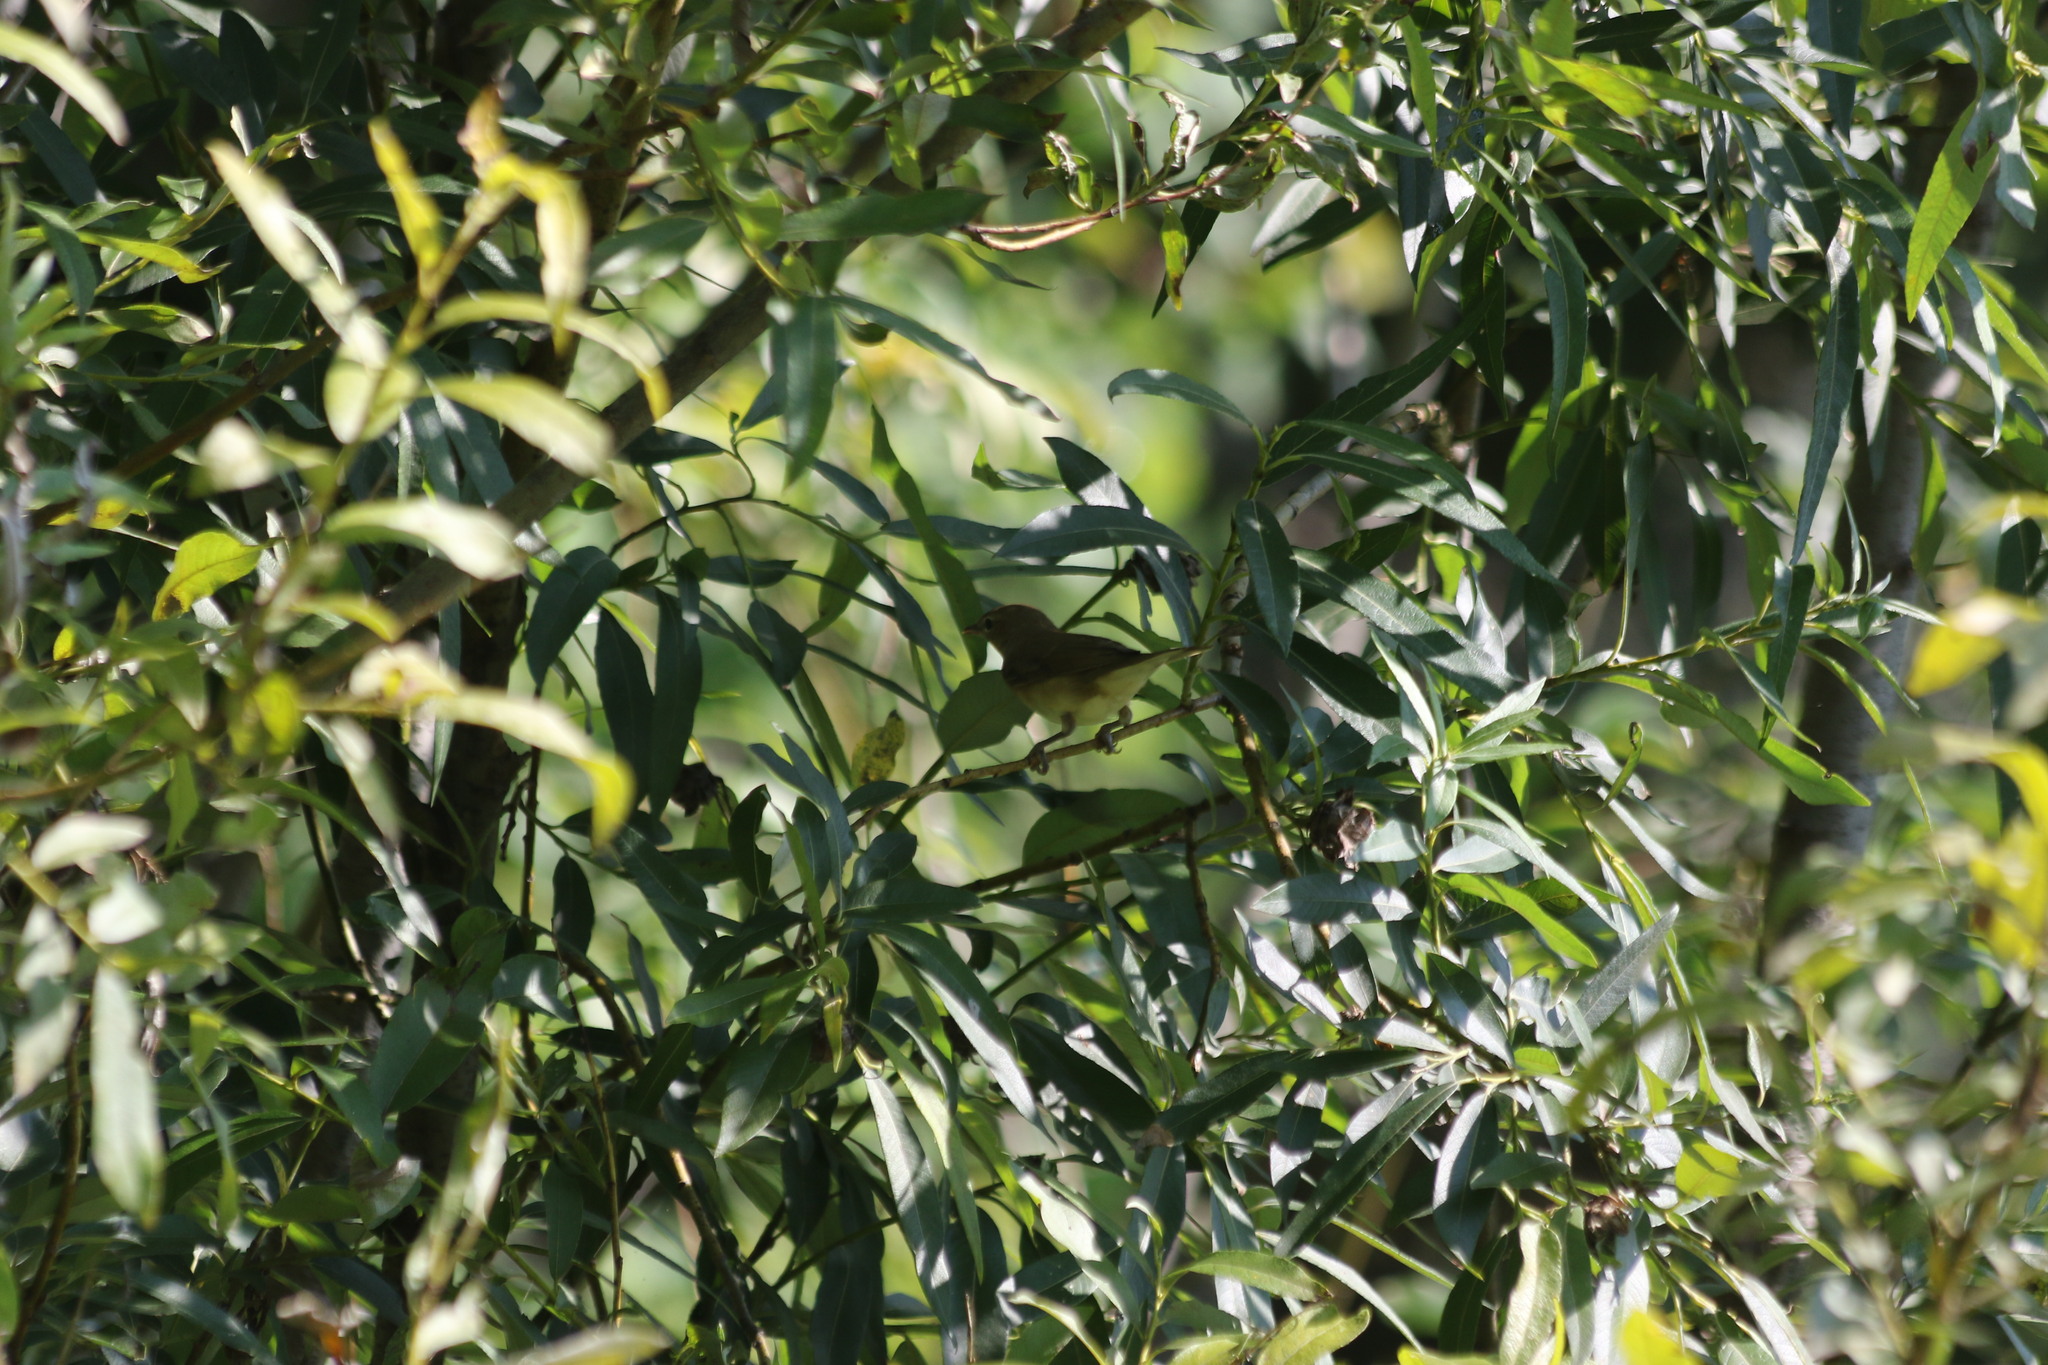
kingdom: Animalia
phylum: Chordata
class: Aves
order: Passeriformes
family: Sylviidae
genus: Sylvia
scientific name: Sylvia borin
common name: Garden warbler
